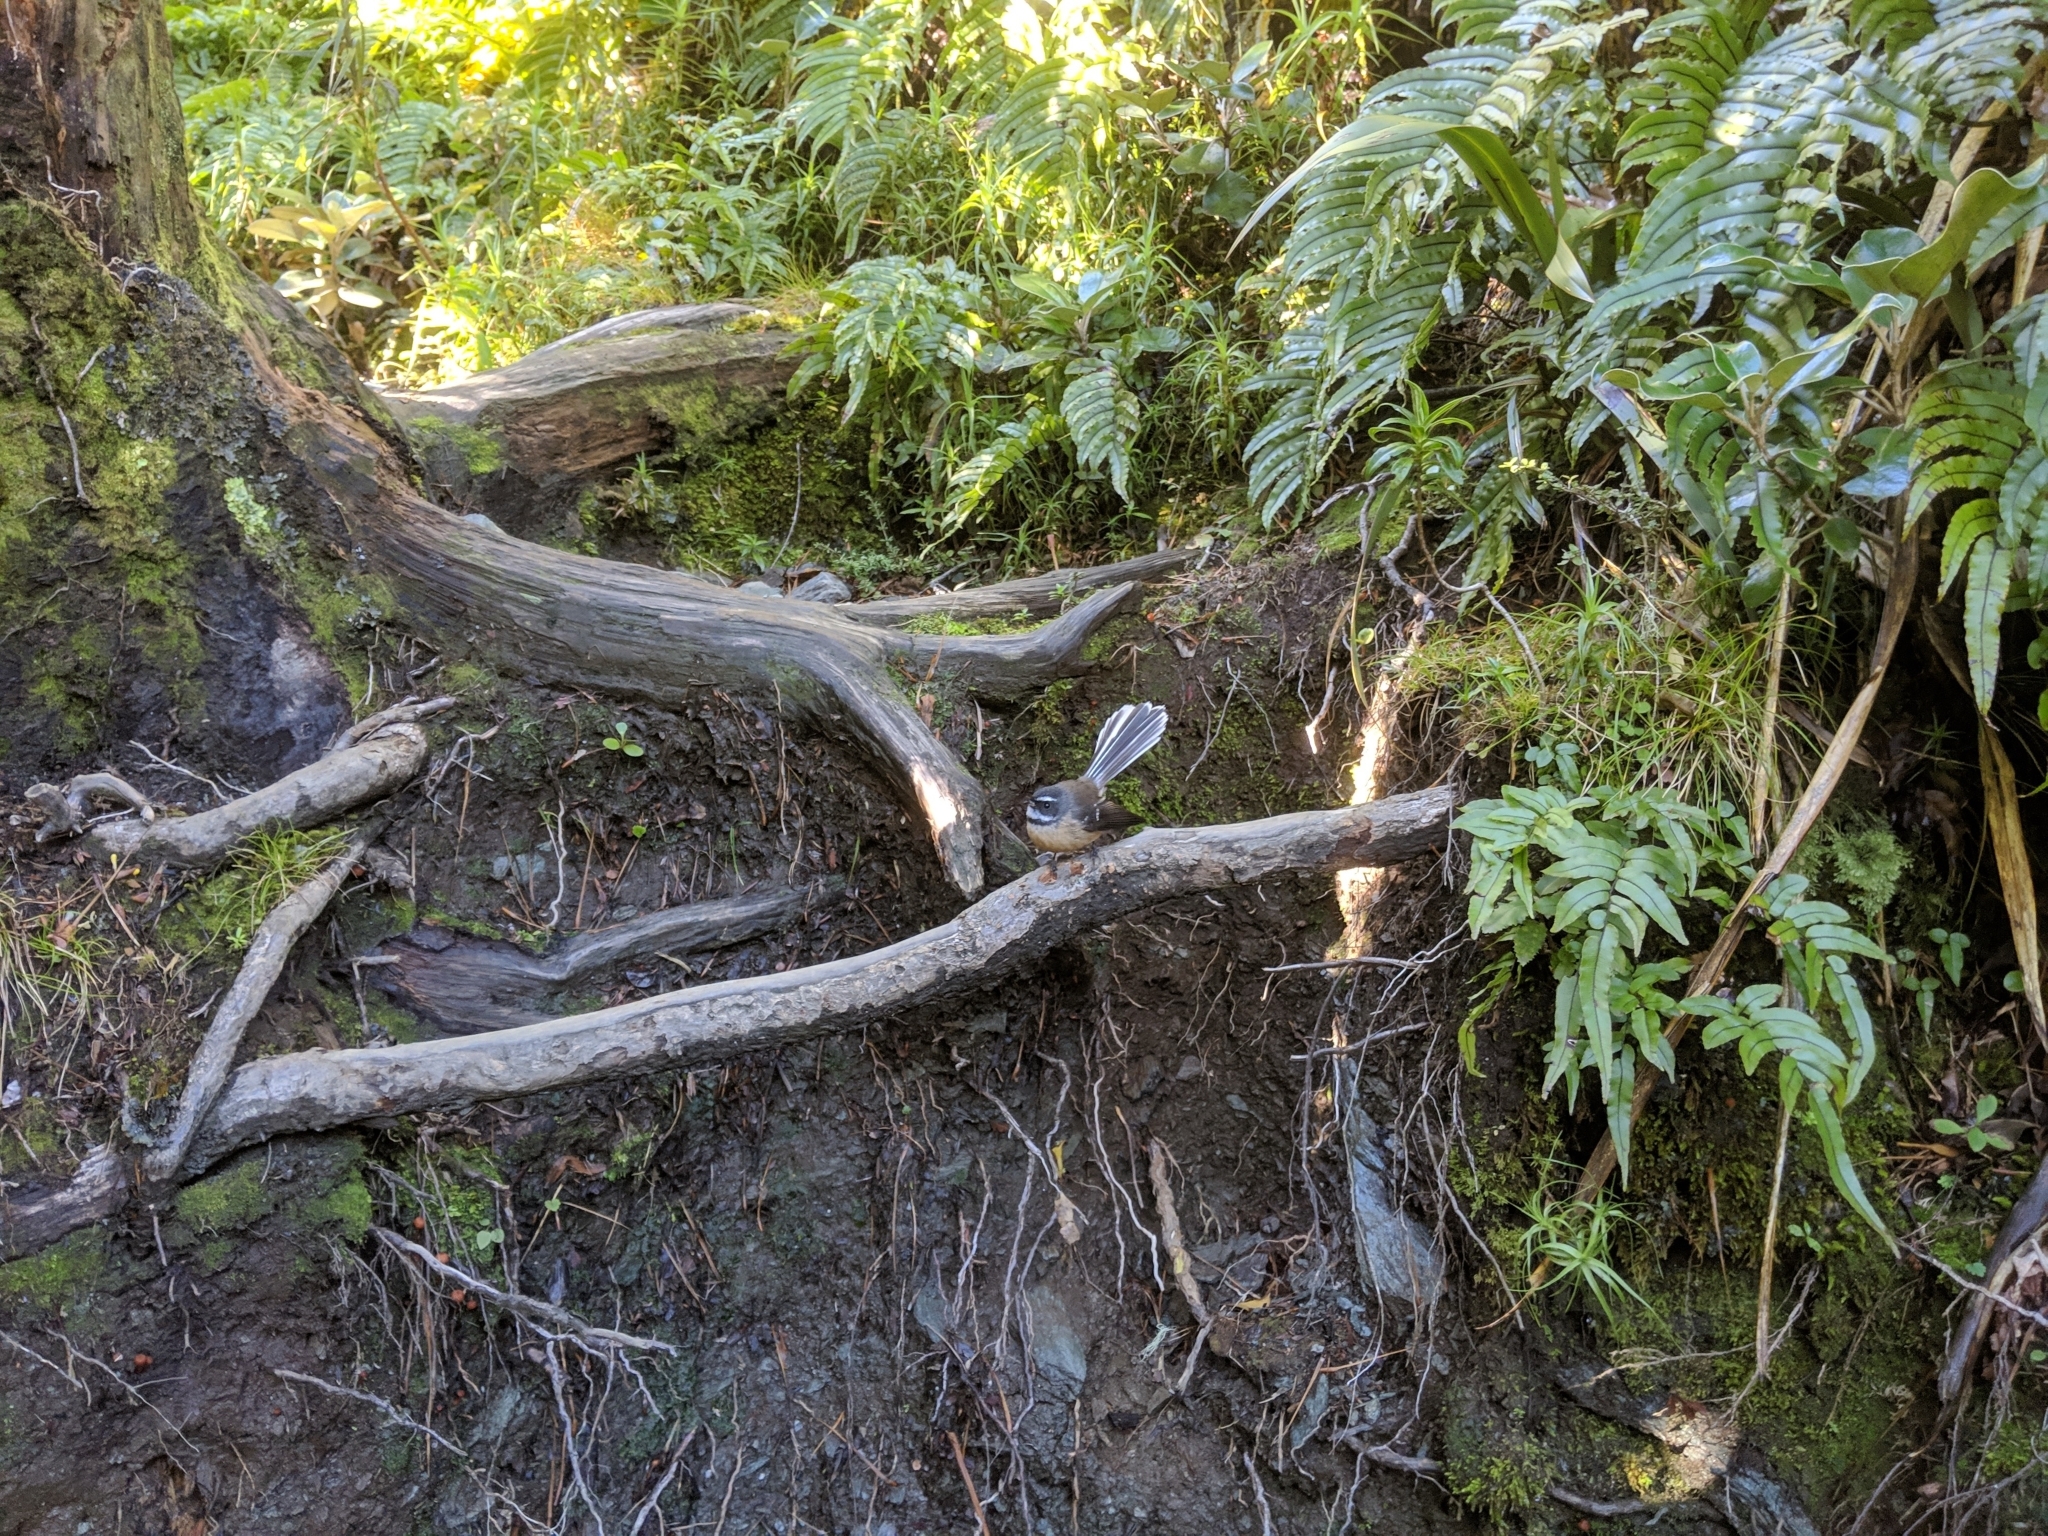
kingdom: Animalia
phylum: Chordata
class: Aves
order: Passeriformes
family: Rhipiduridae
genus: Rhipidura
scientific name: Rhipidura fuliginosa
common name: New zealand fantail
